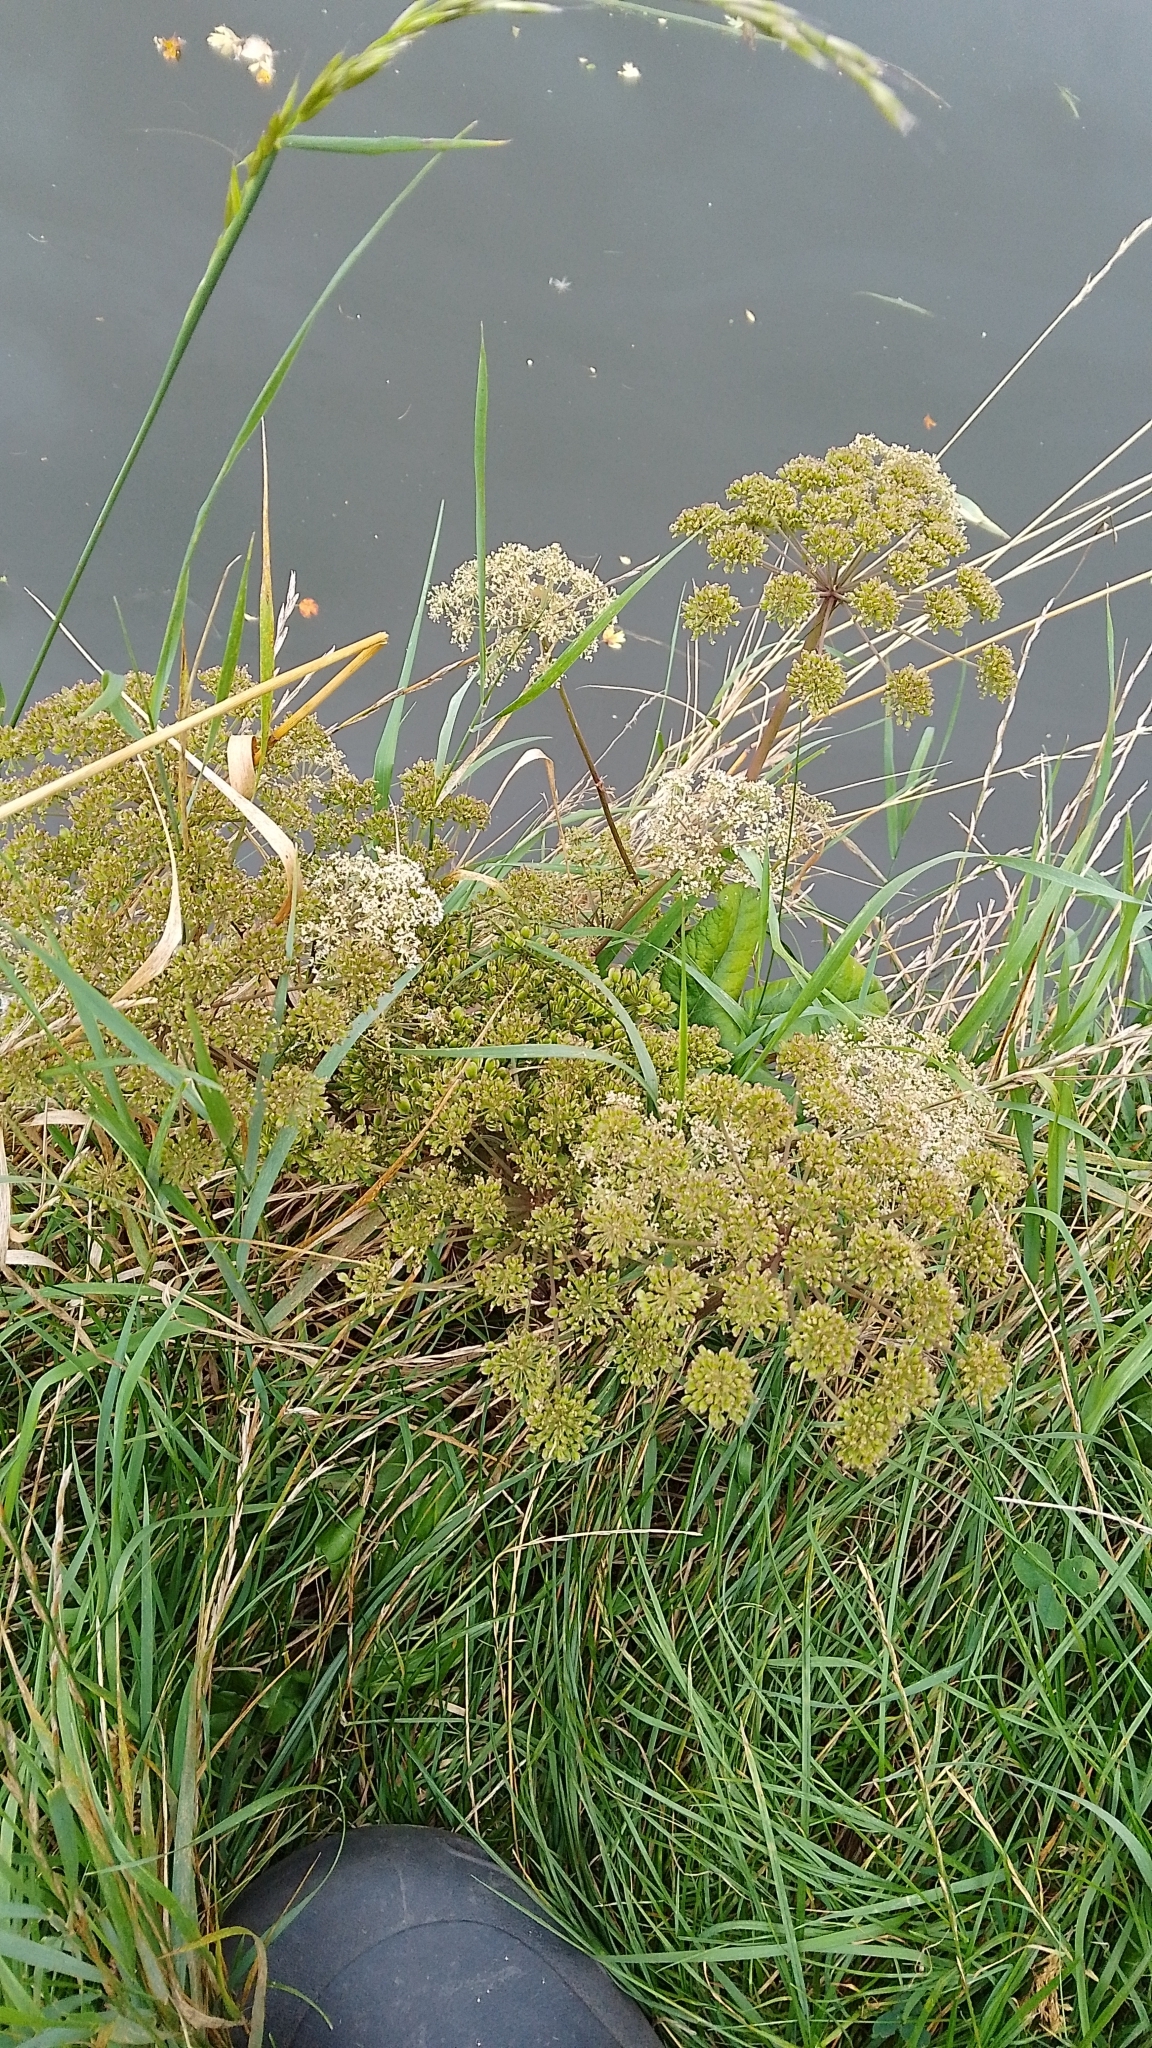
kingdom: Plantae
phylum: Tracheophyta
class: Magnoliopsida
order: Apiales
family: Apiaceae
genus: Angelica
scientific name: Angelica sylvestris
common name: Wild angelica
